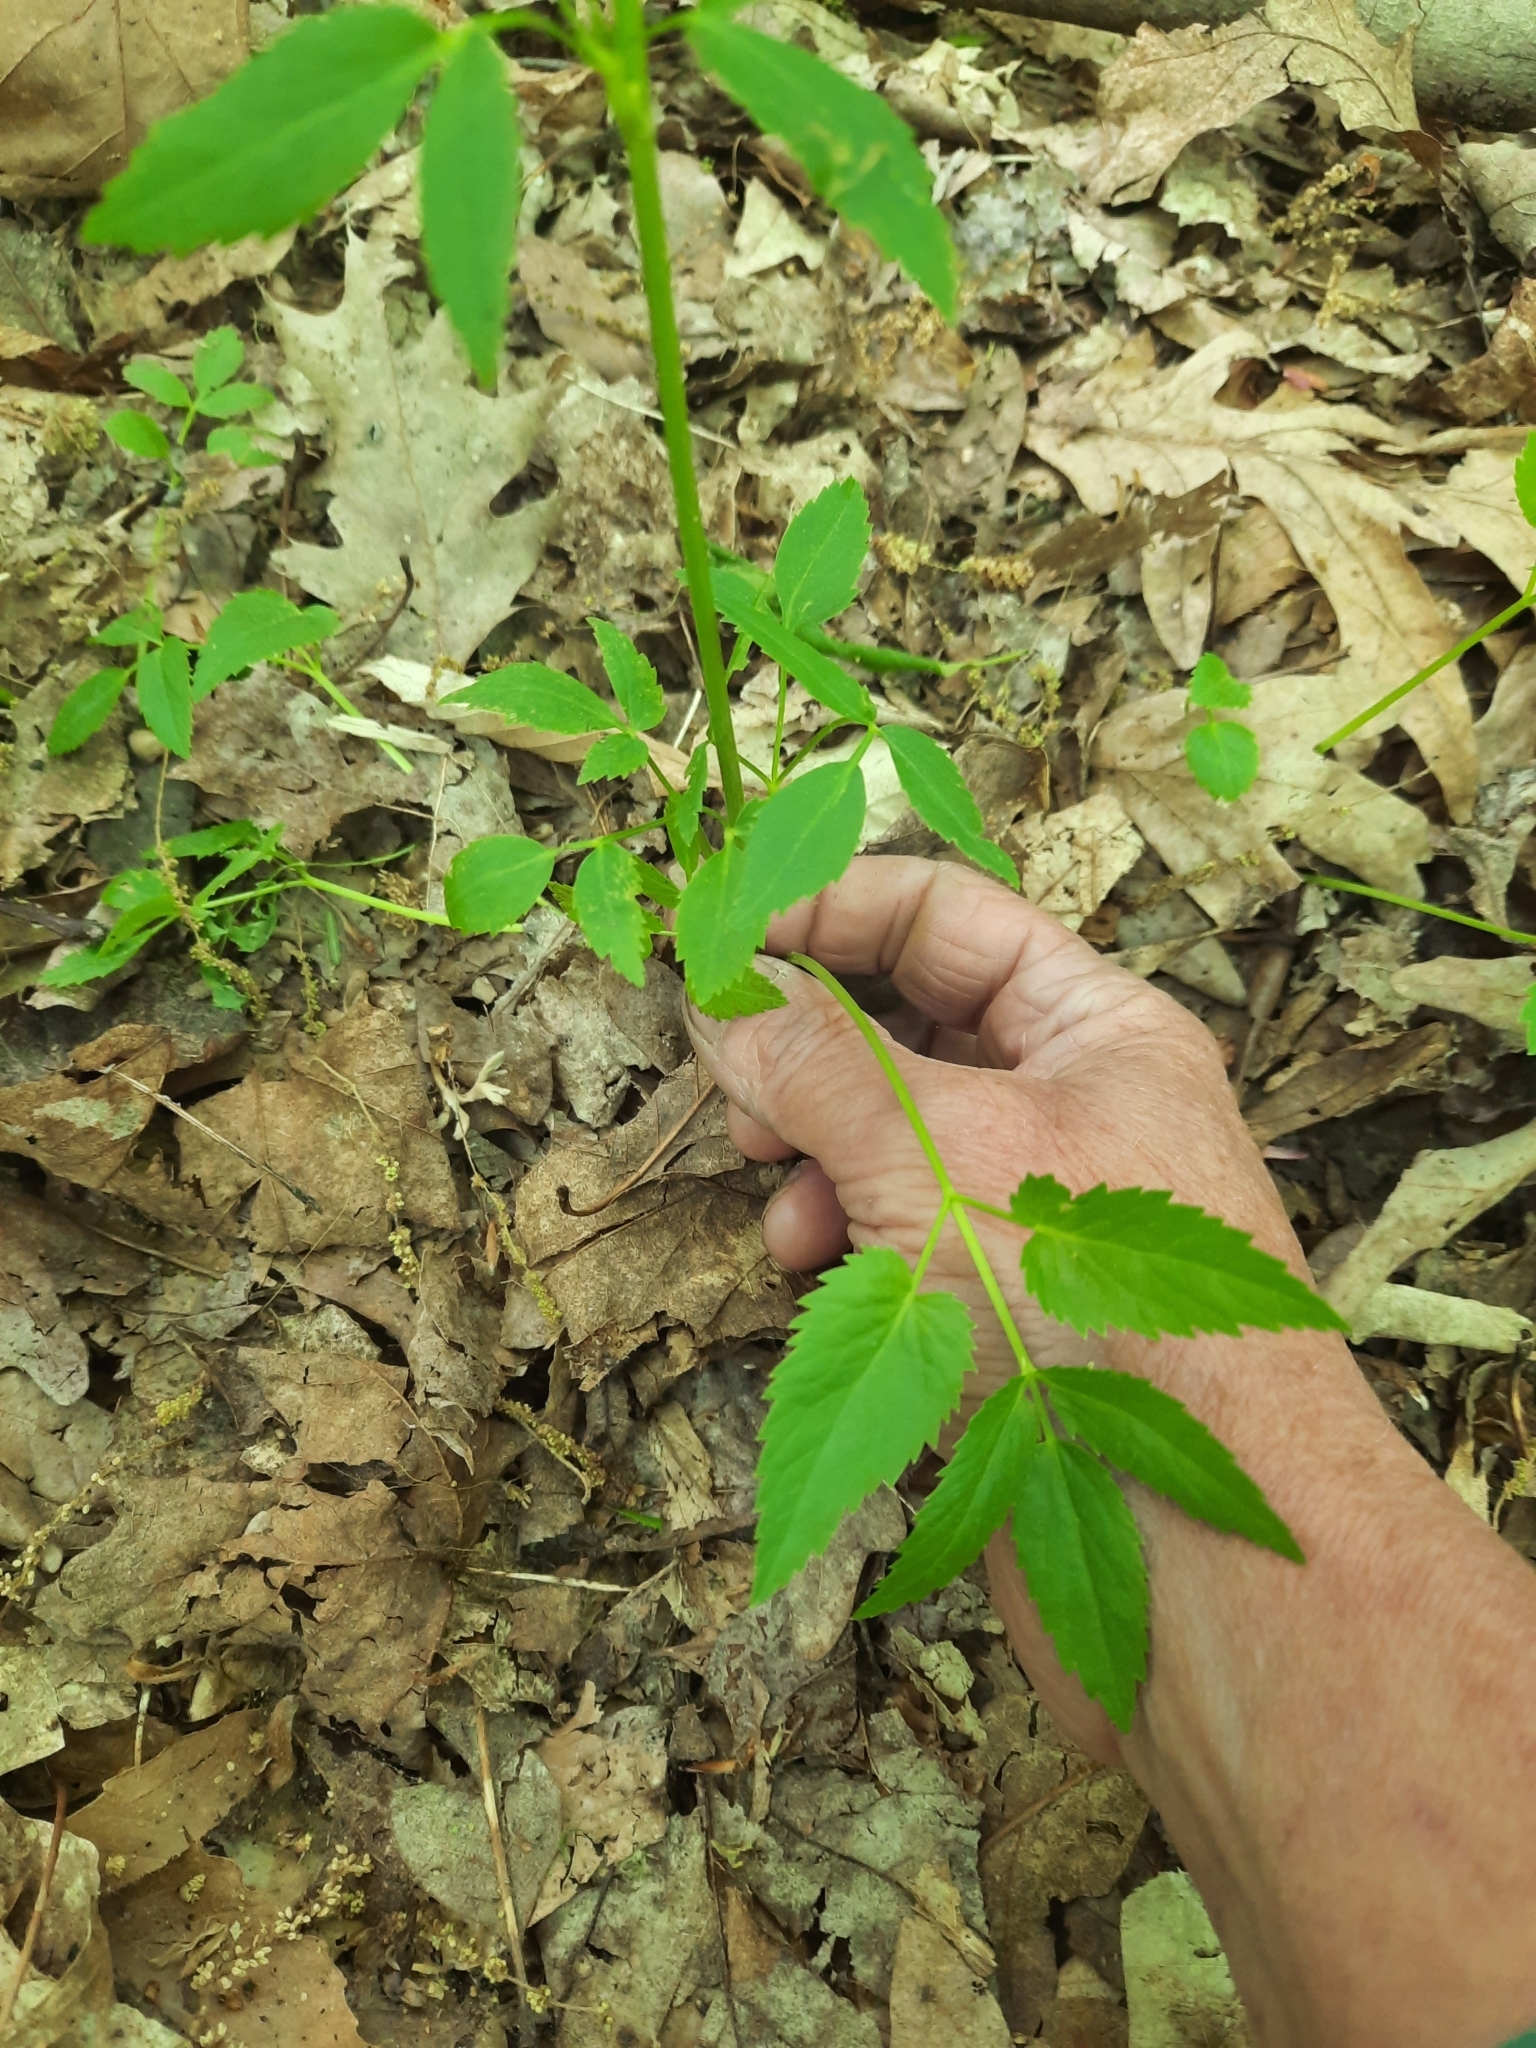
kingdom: Plantae
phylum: Tracheophyta
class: Magnoliopsida
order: Apiales
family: Apiaceae
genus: Zizia
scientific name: Zizia aurea
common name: Golden alexanders
